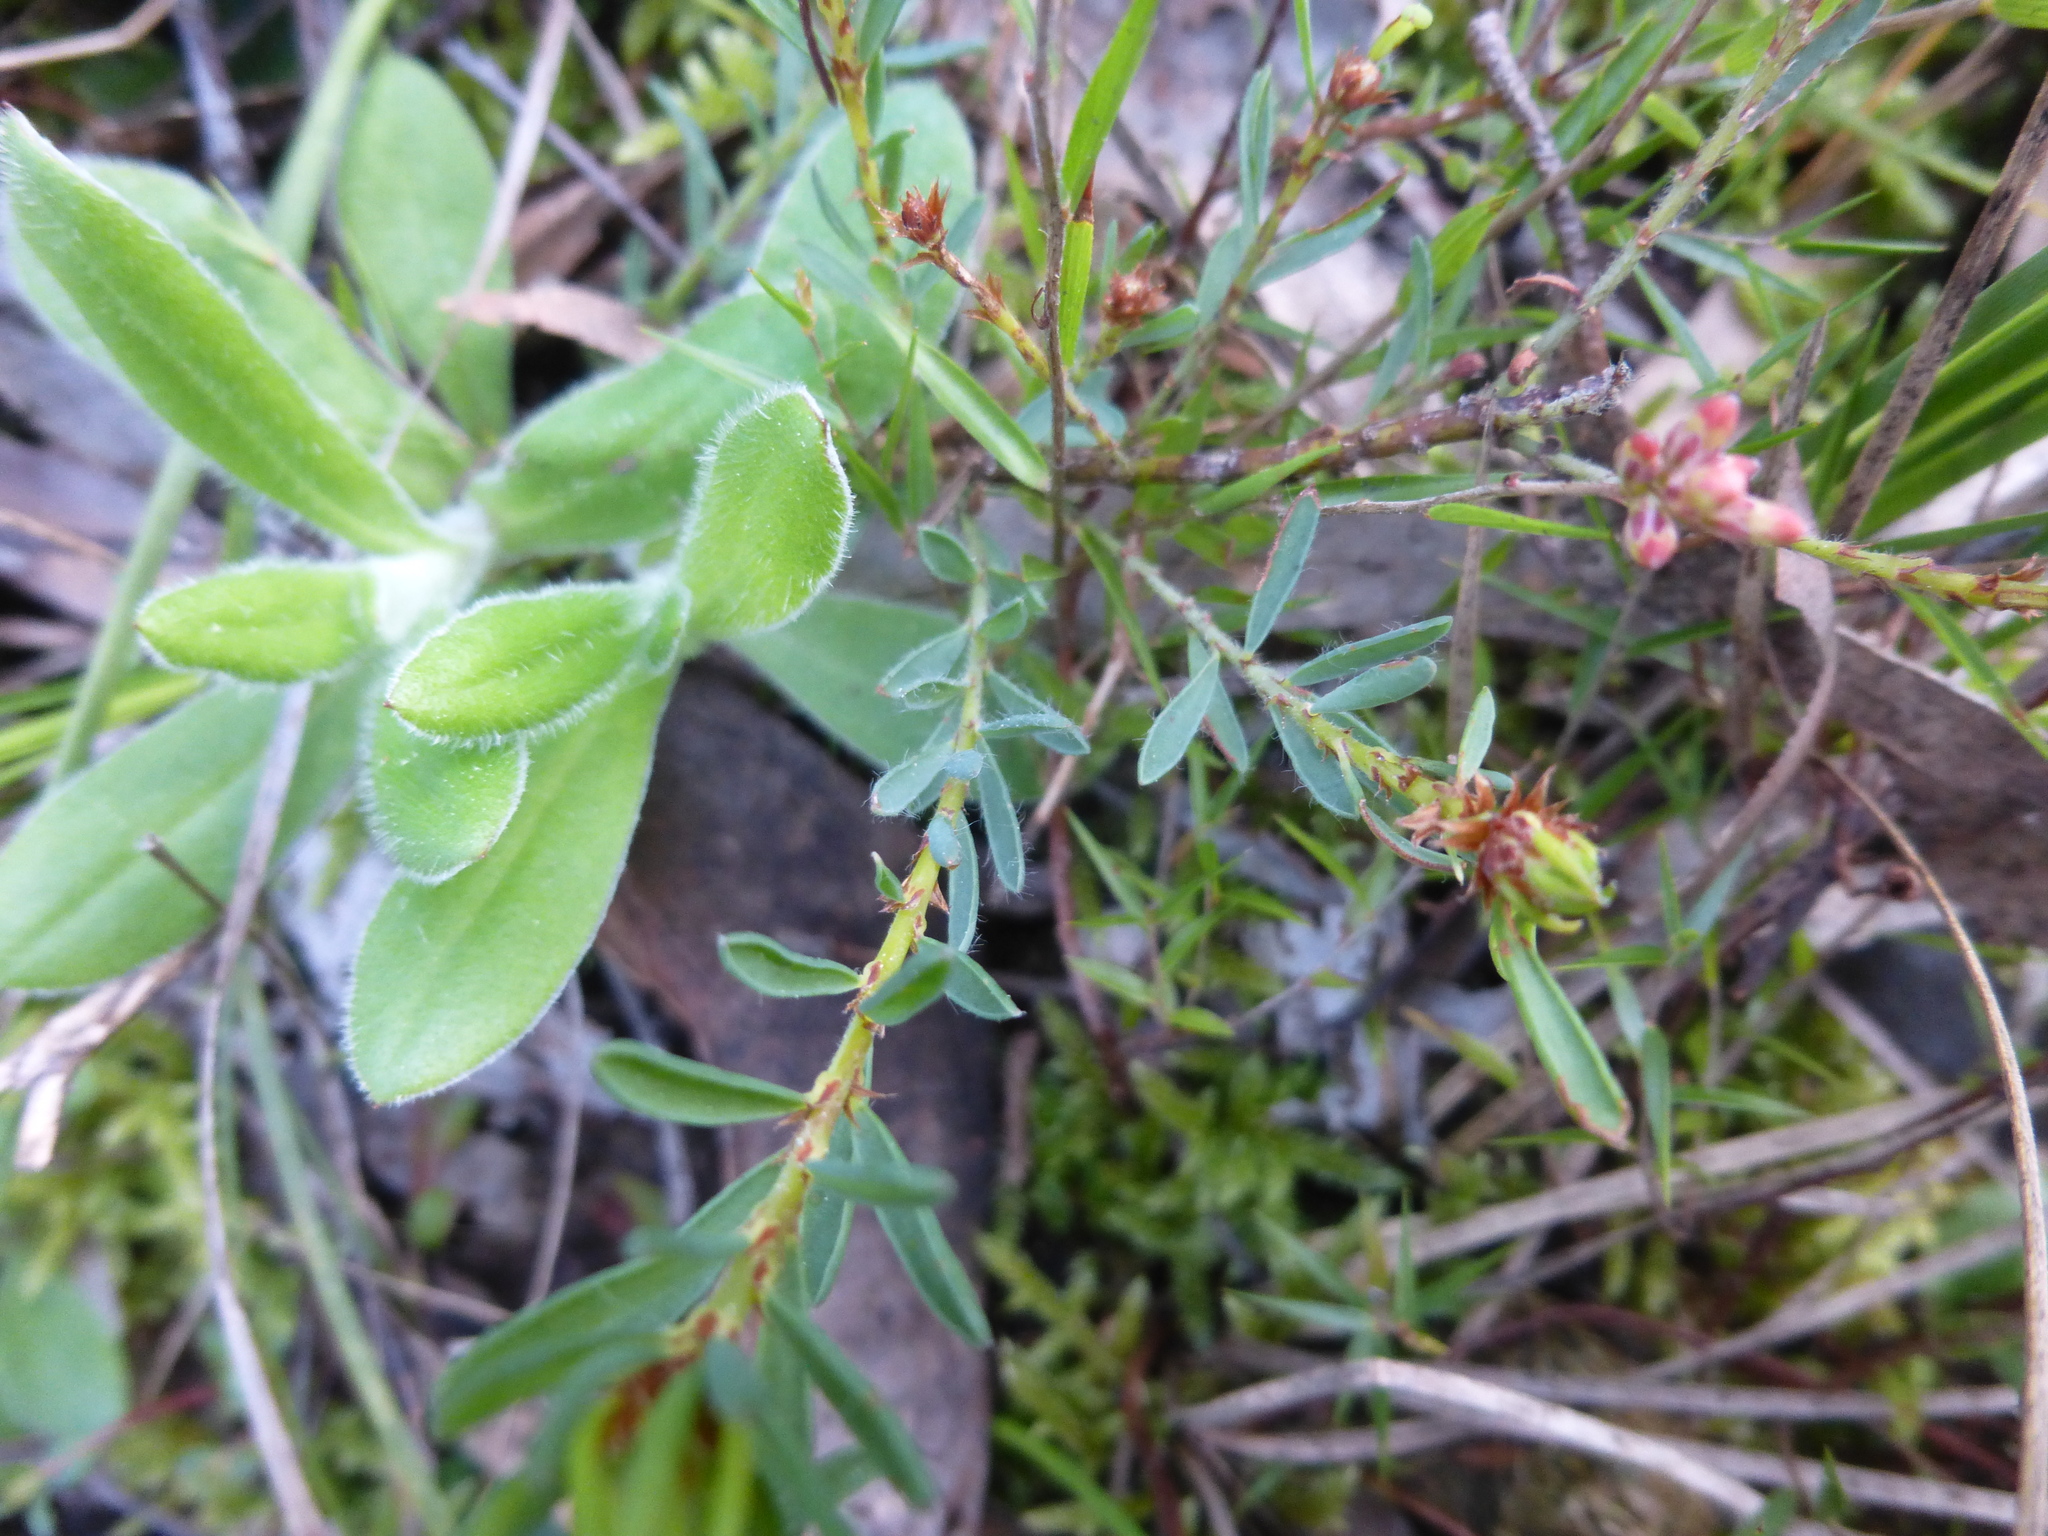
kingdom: Plantae
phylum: Tracheophyta
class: Magnoliopsida
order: Ericales
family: Ericaceae
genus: Leucopogon
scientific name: Leucopogon virgatus
